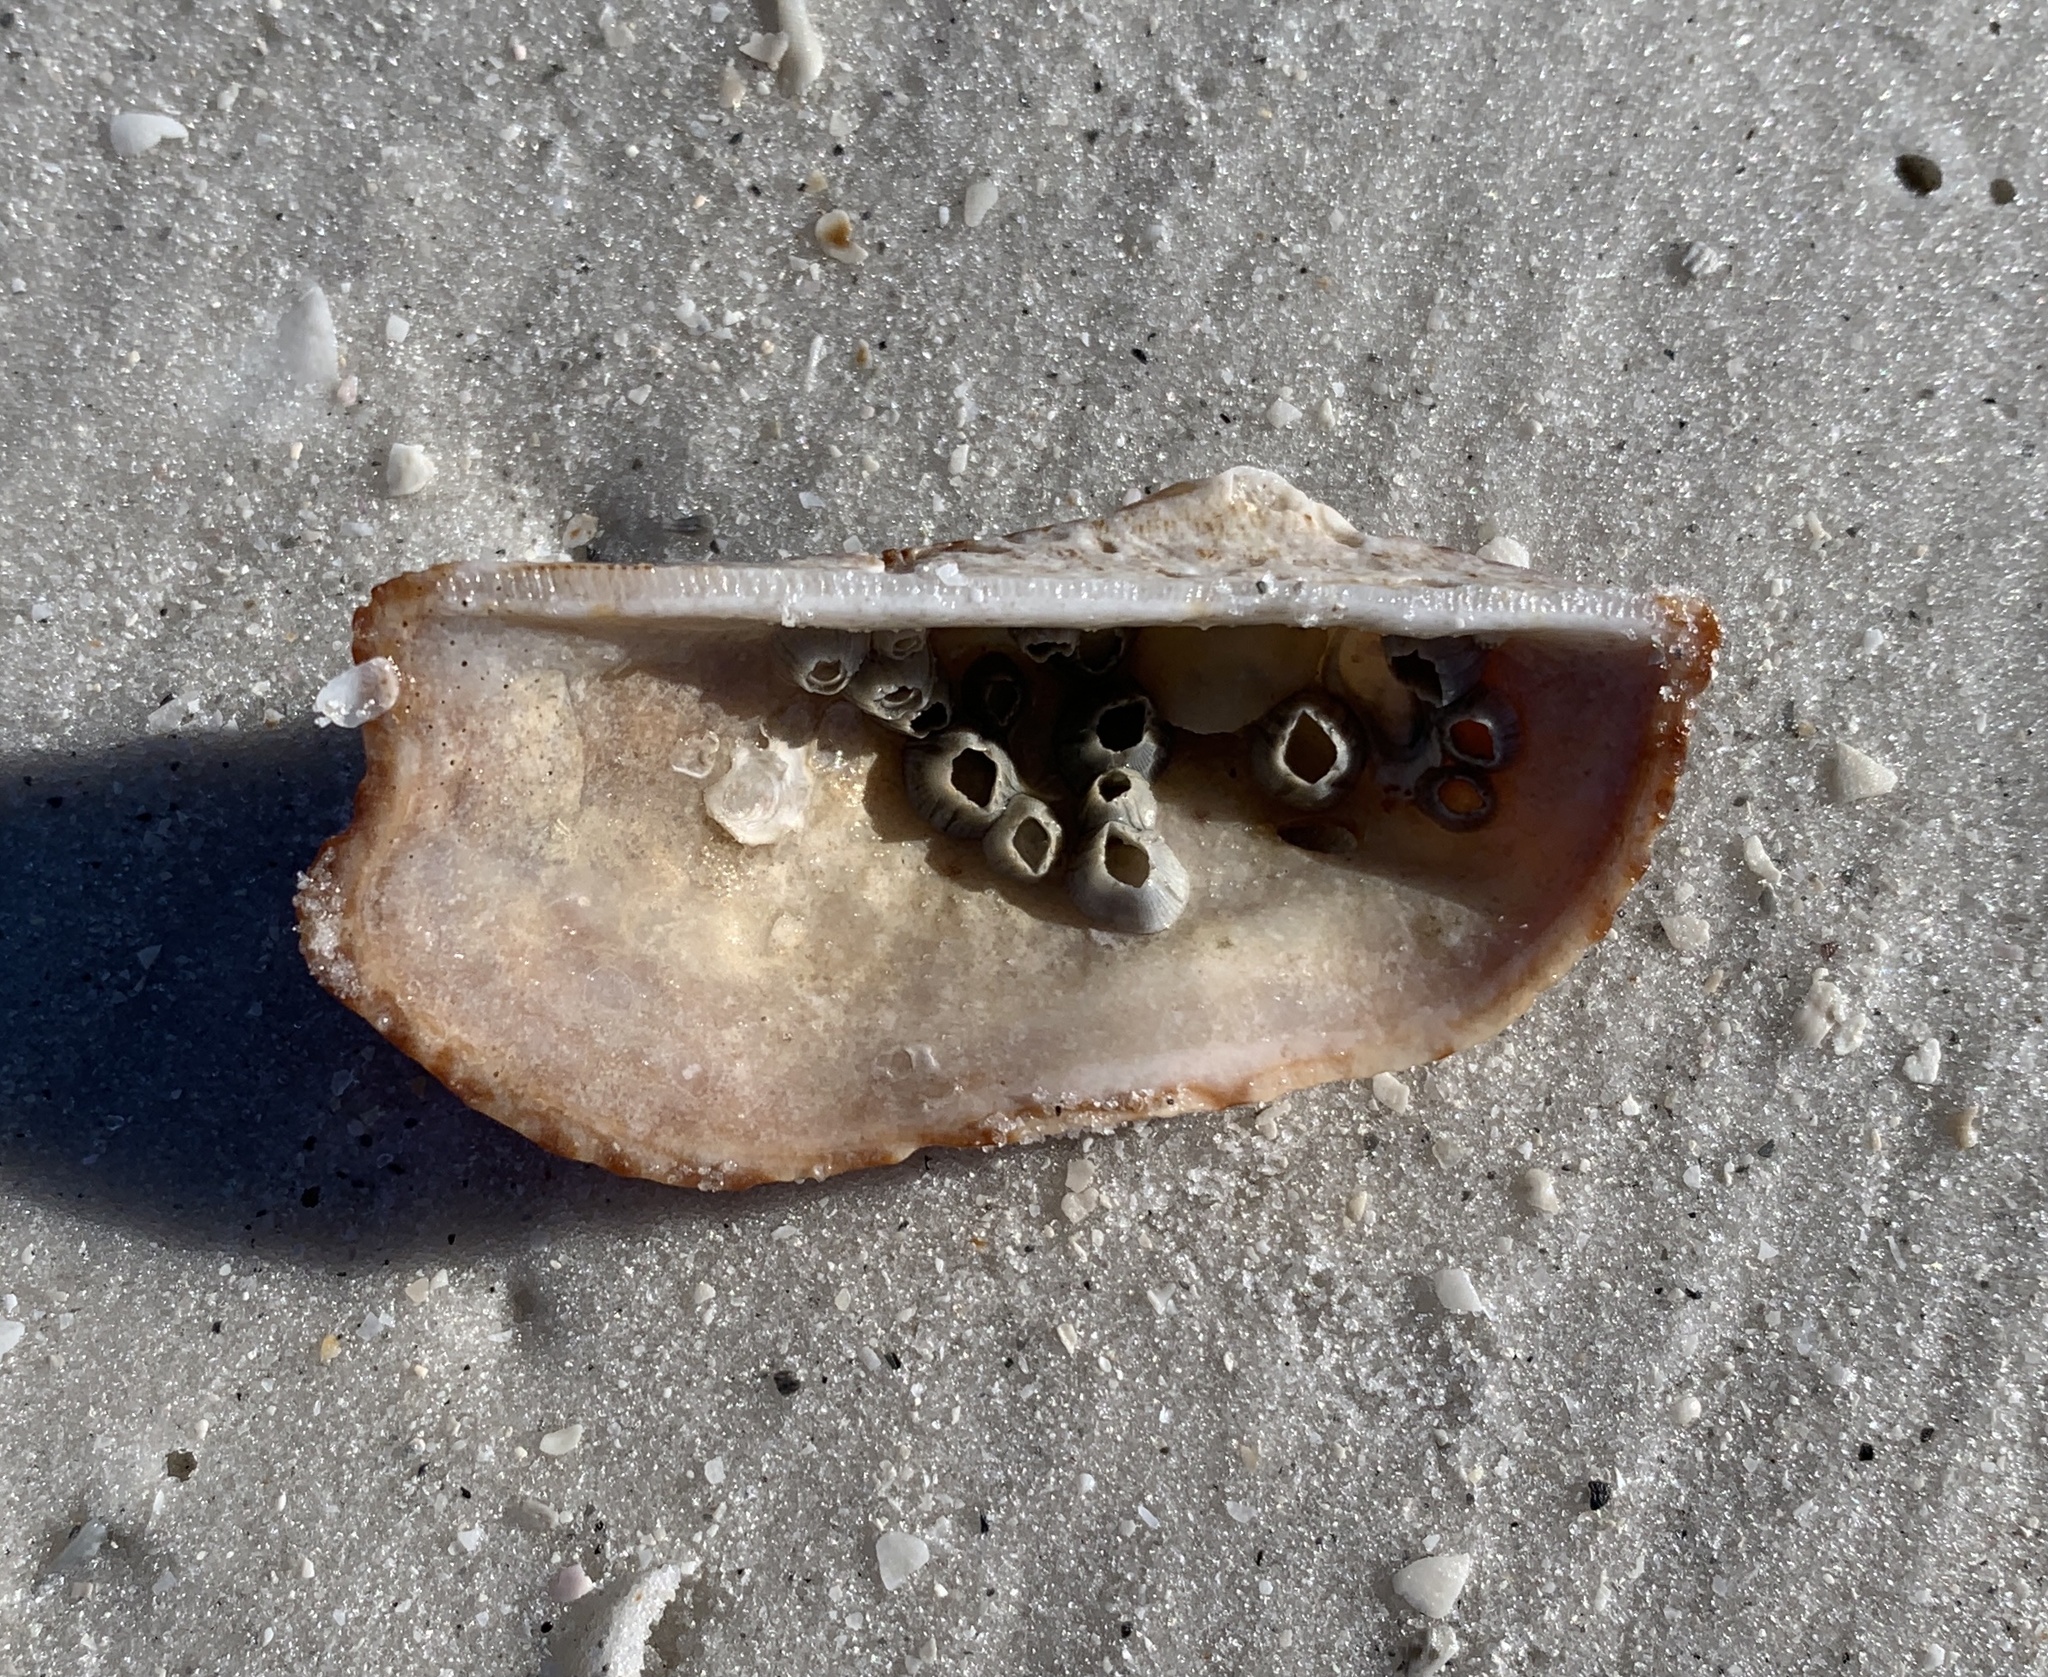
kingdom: Animalia
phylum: Mollusca
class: Bivalvia
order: Arcida
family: Arcidae
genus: Arca
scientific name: Arca zebra
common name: Atlantic turkey wing
